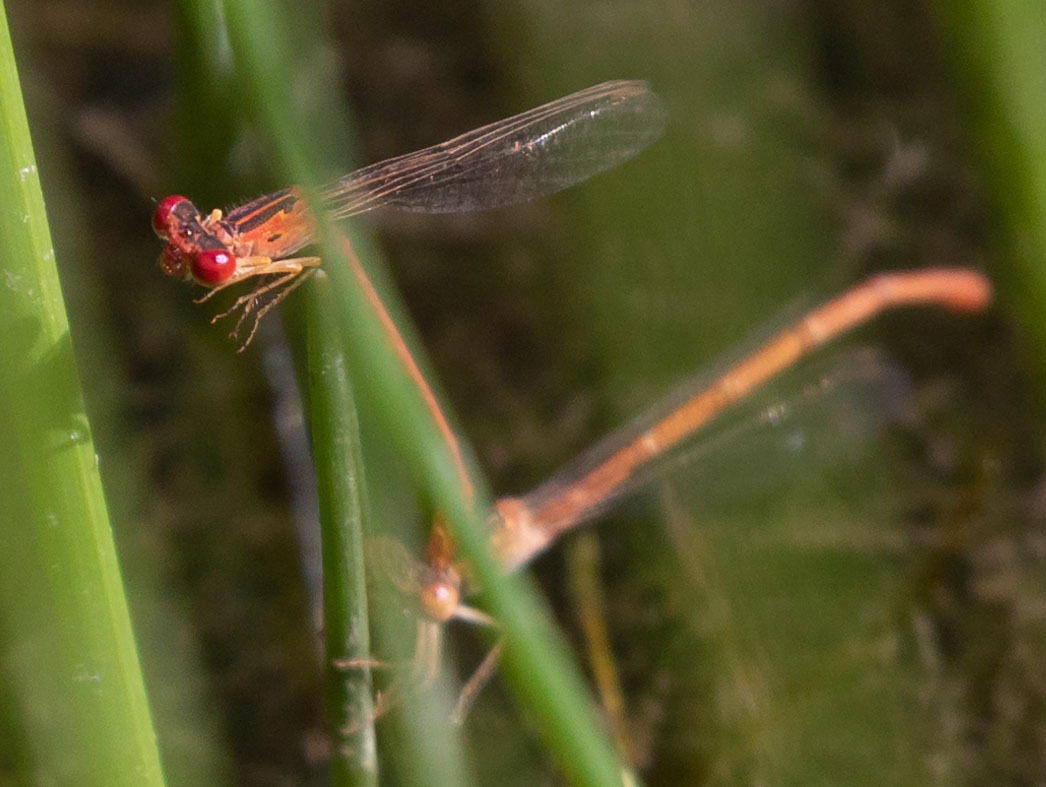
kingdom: Animalia
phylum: Arthropoda
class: Insecta
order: Odonata
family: Coenagrionidae
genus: Telebasis
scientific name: Telebasis salva
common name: Desert firetail
